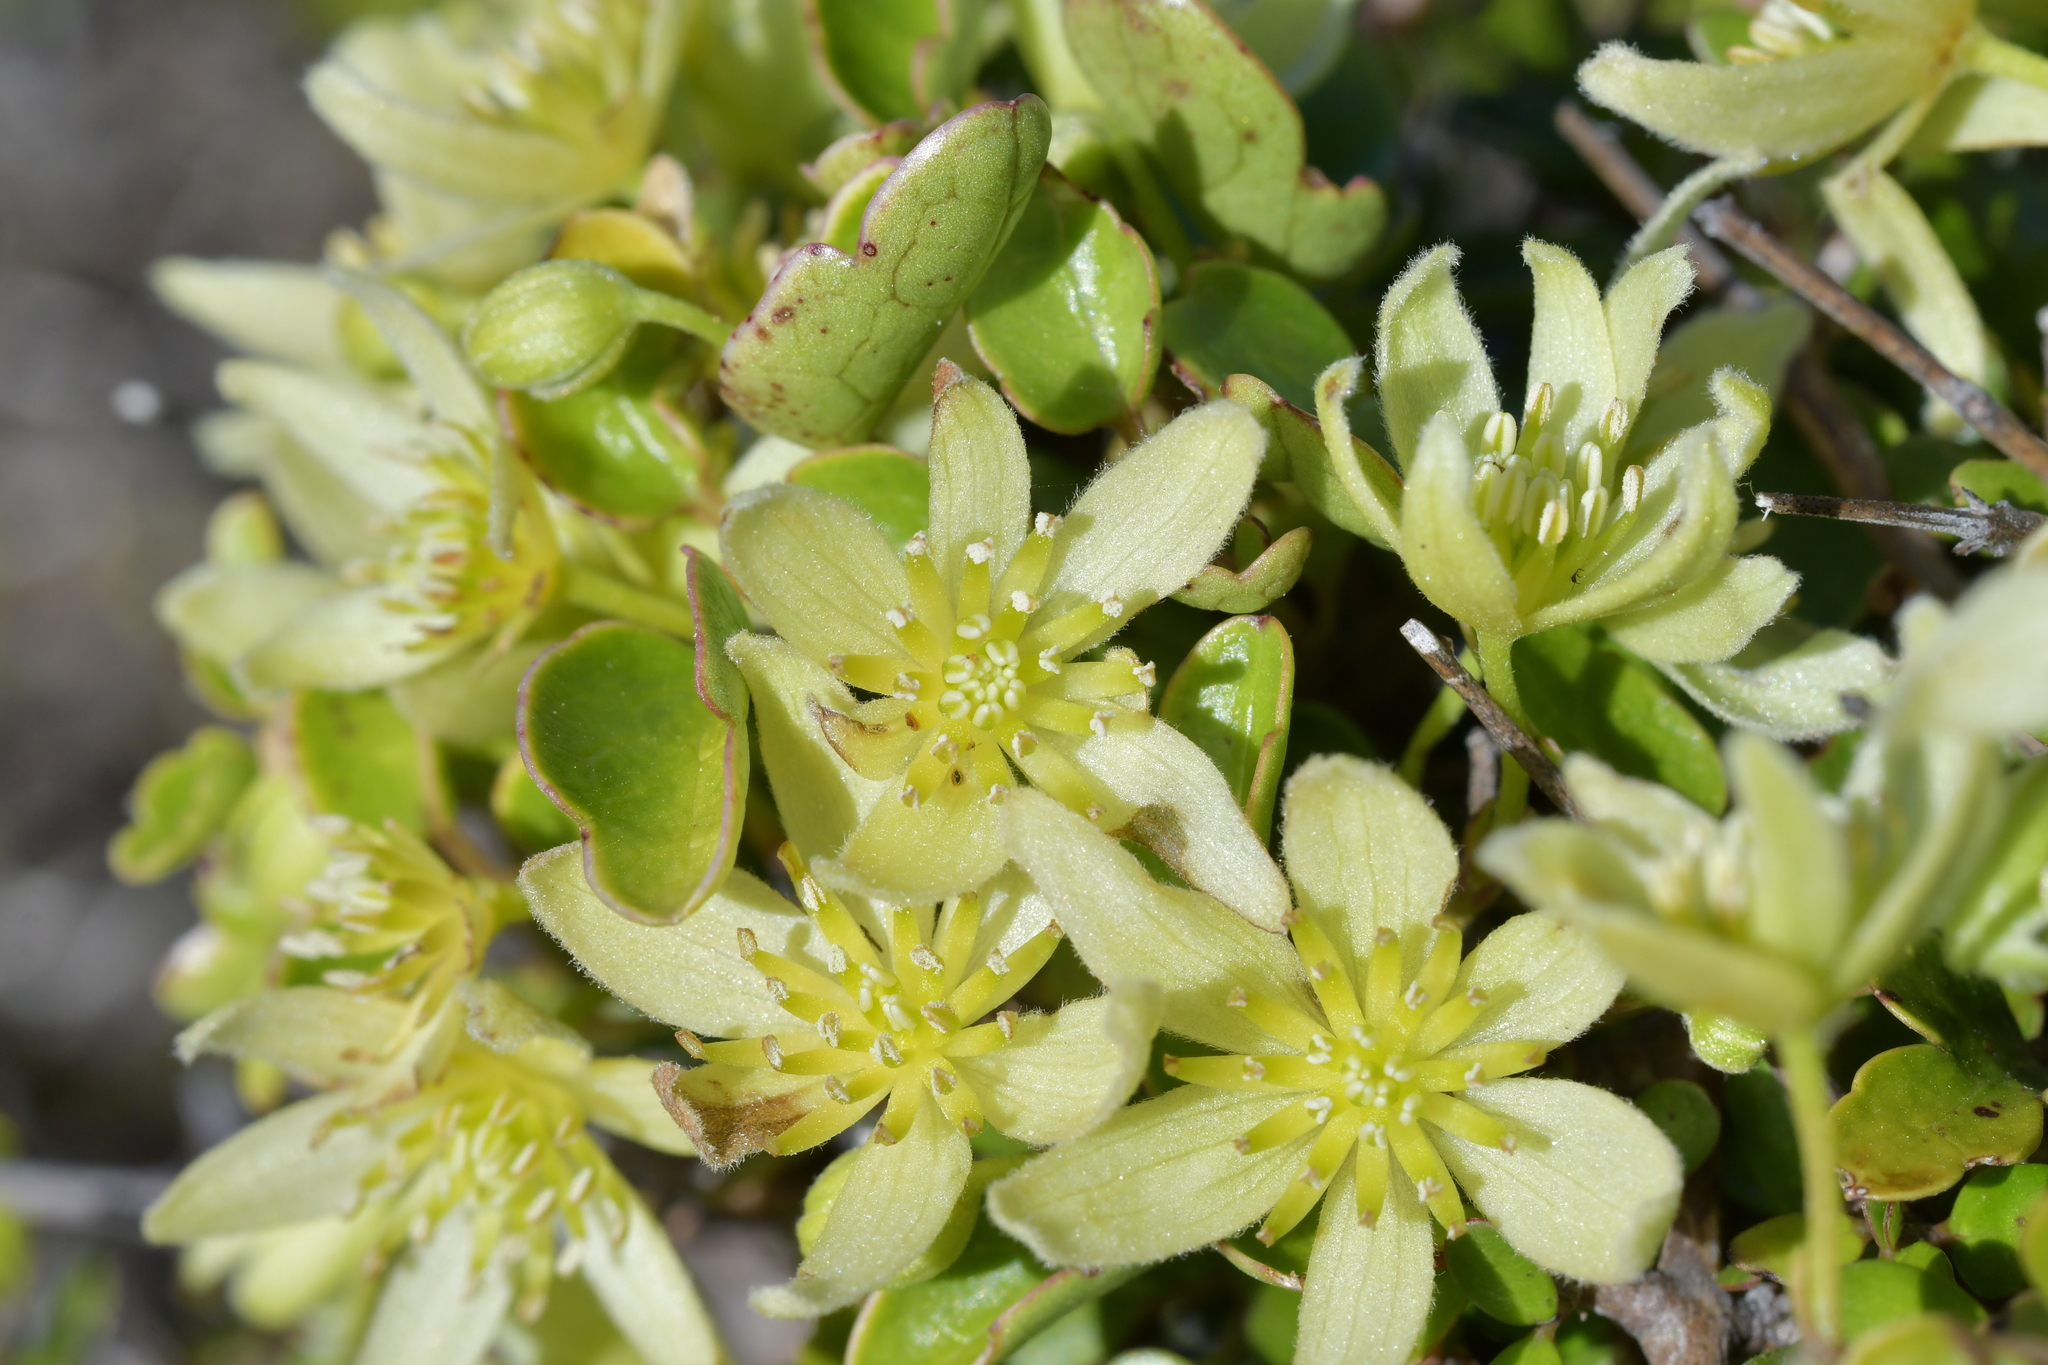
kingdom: Plantae
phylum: Tracheophyta
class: Magnoliopsida
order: Ranunculales
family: Ranunculaceae
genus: Clematis
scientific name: Clematis forsteri
